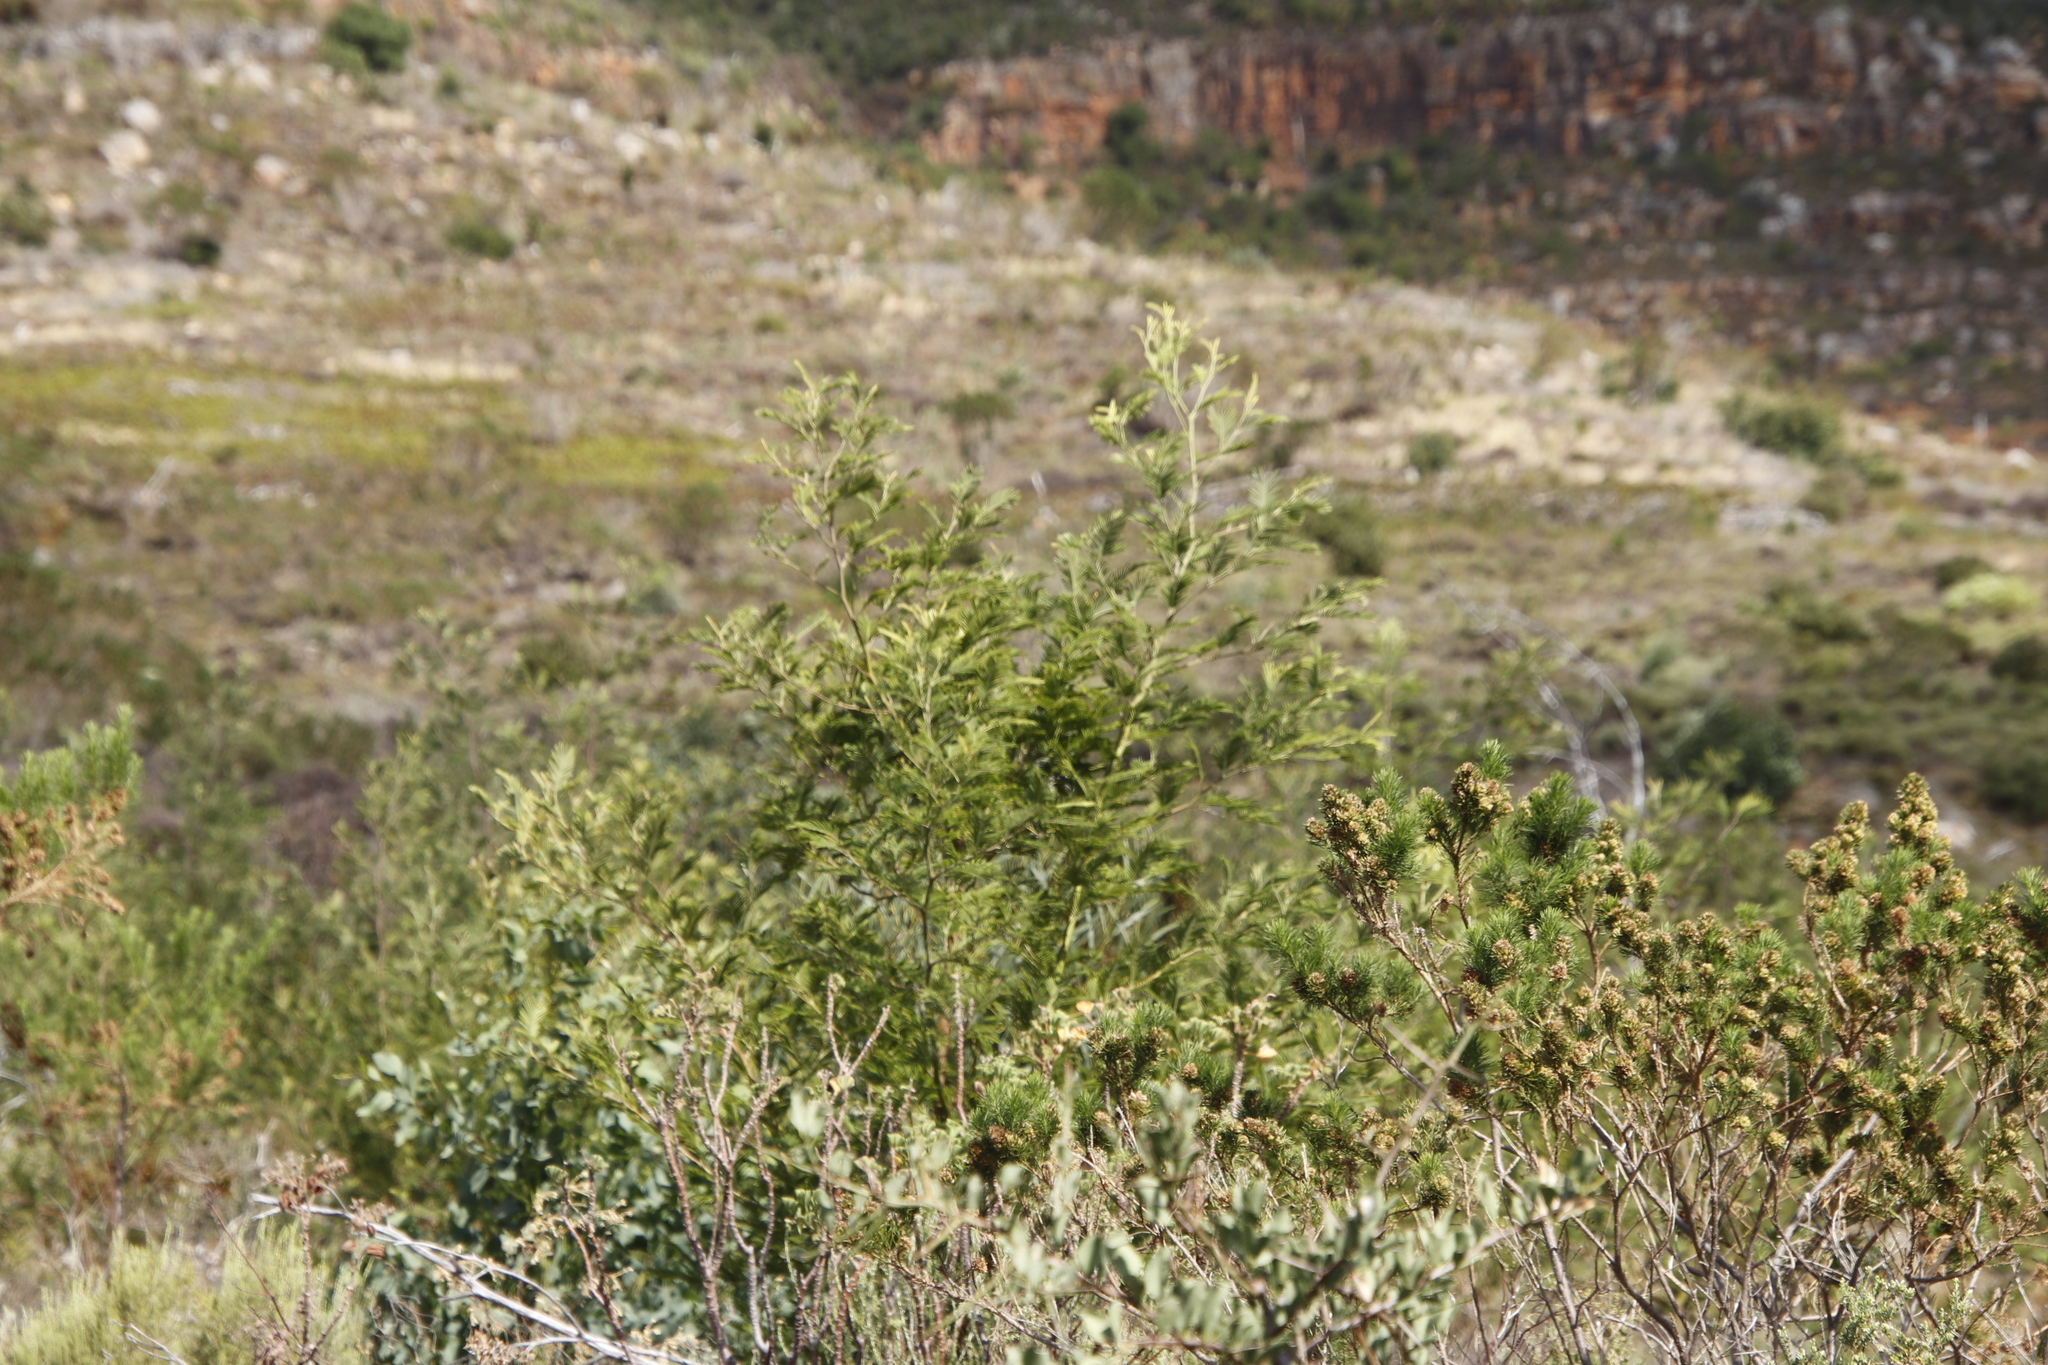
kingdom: Plantae
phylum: Tracheophyta
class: Magnoliopsida
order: Fabales
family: Fabaceae
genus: Acacia
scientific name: Acacia mearnsii
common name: Black wattle
